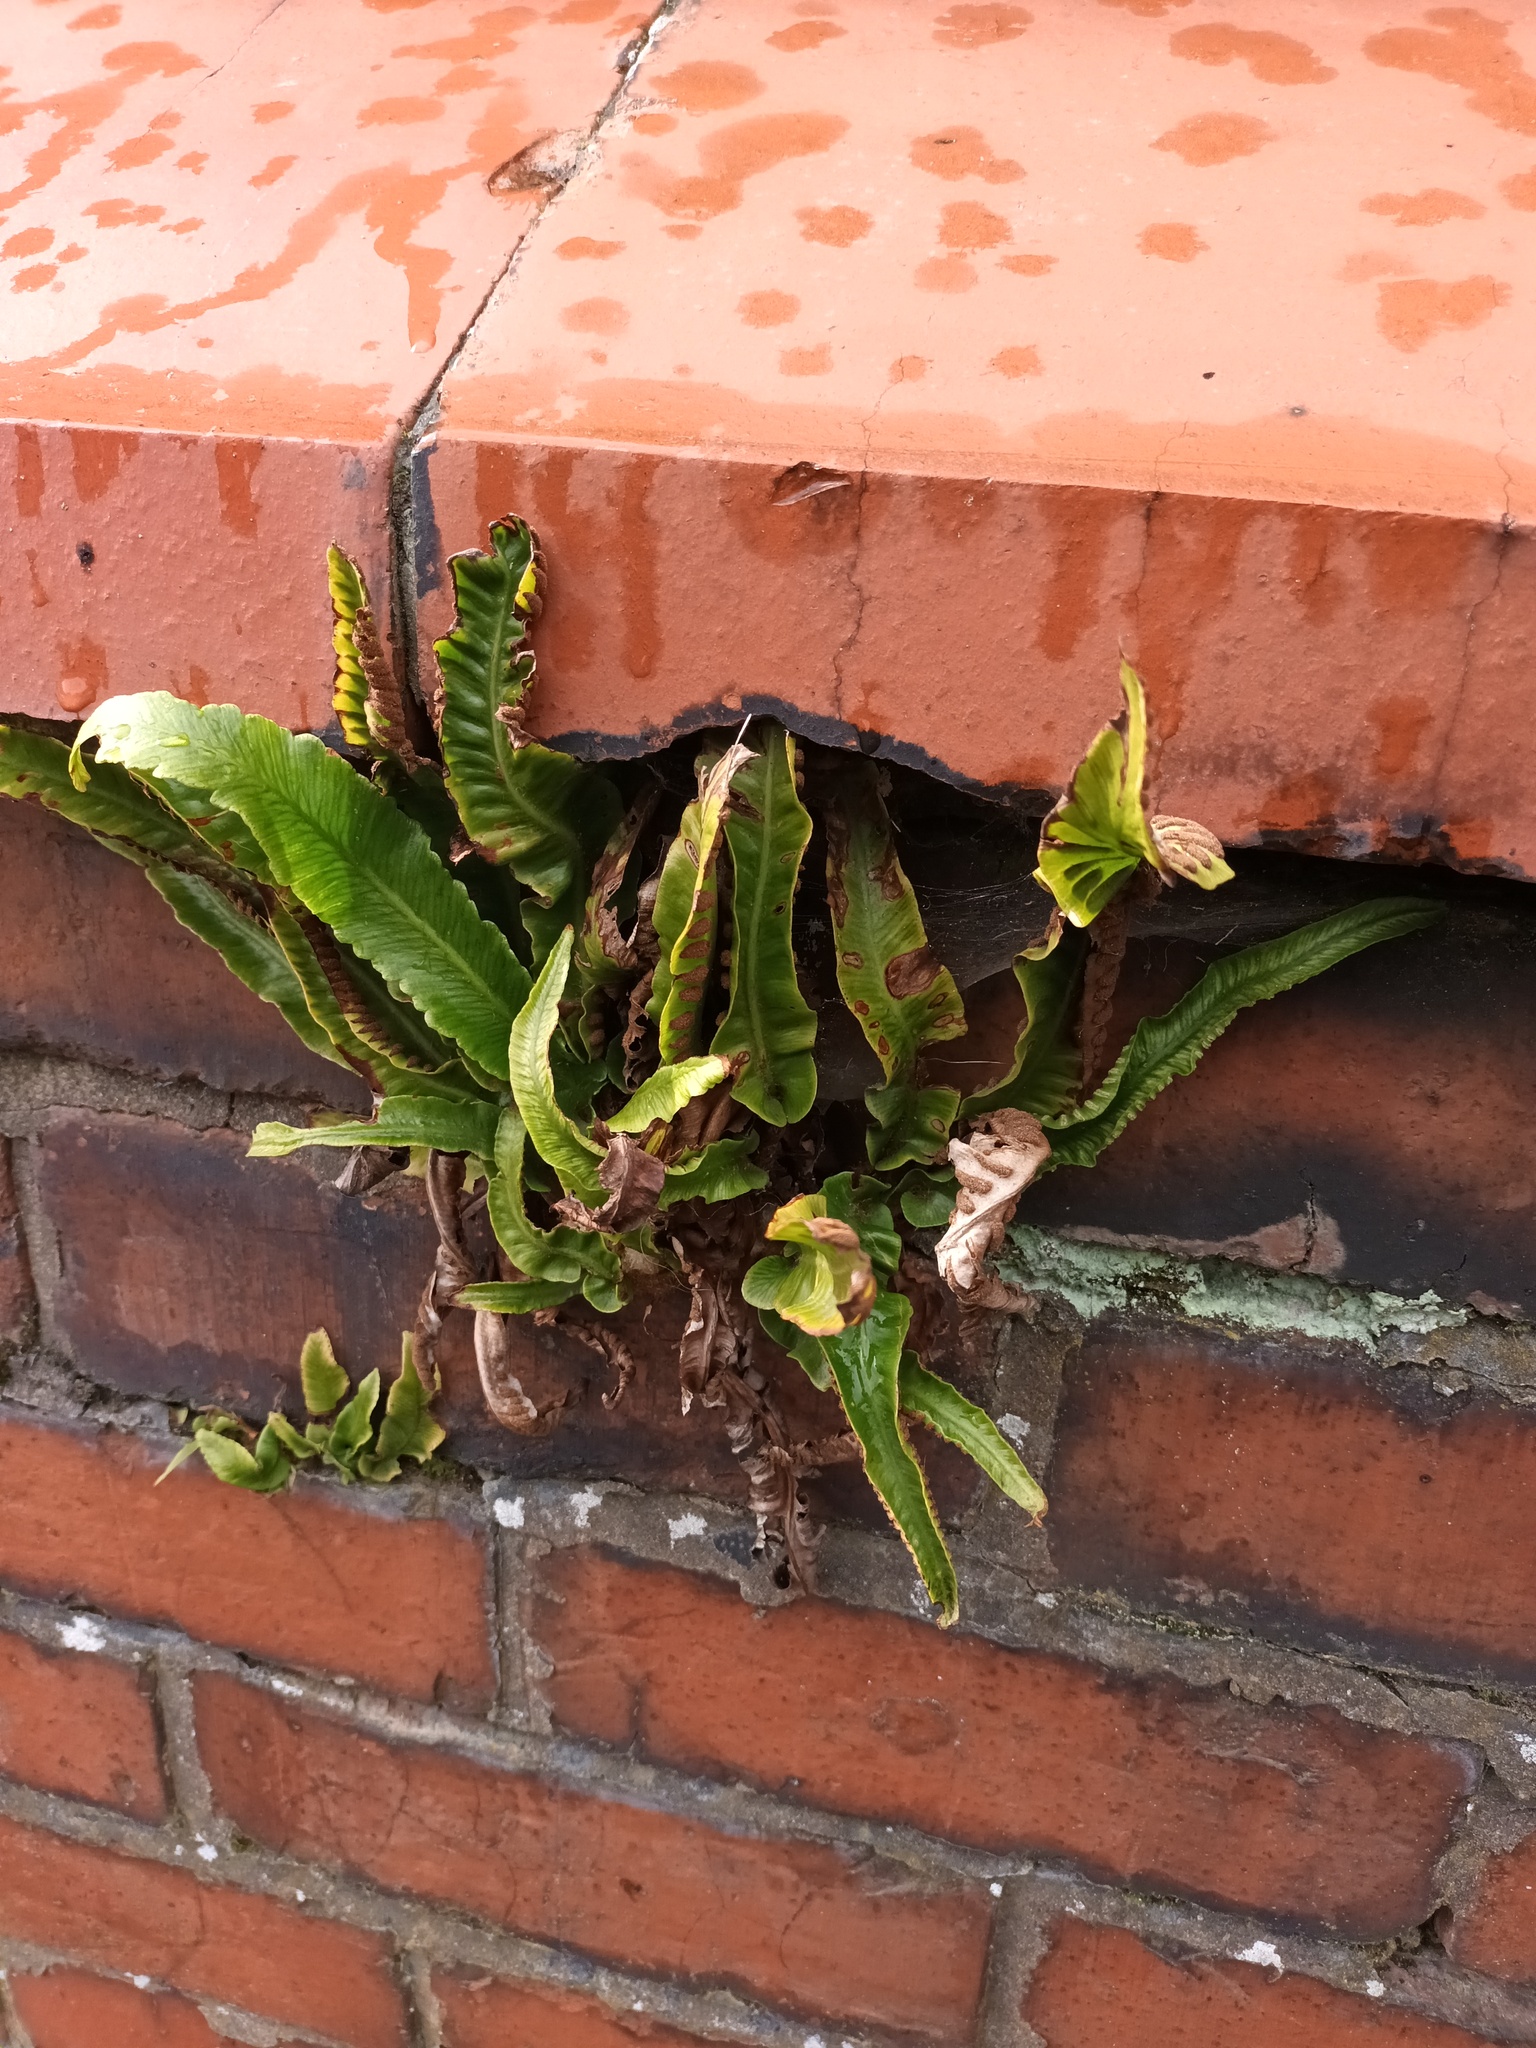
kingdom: Plantae
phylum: Tracheophyta
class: Polypodiopsida
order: Polypodiales
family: Aspleniaceae
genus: Asplenium
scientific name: Asplenium scolopendrium
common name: Hart's-tongue fern
